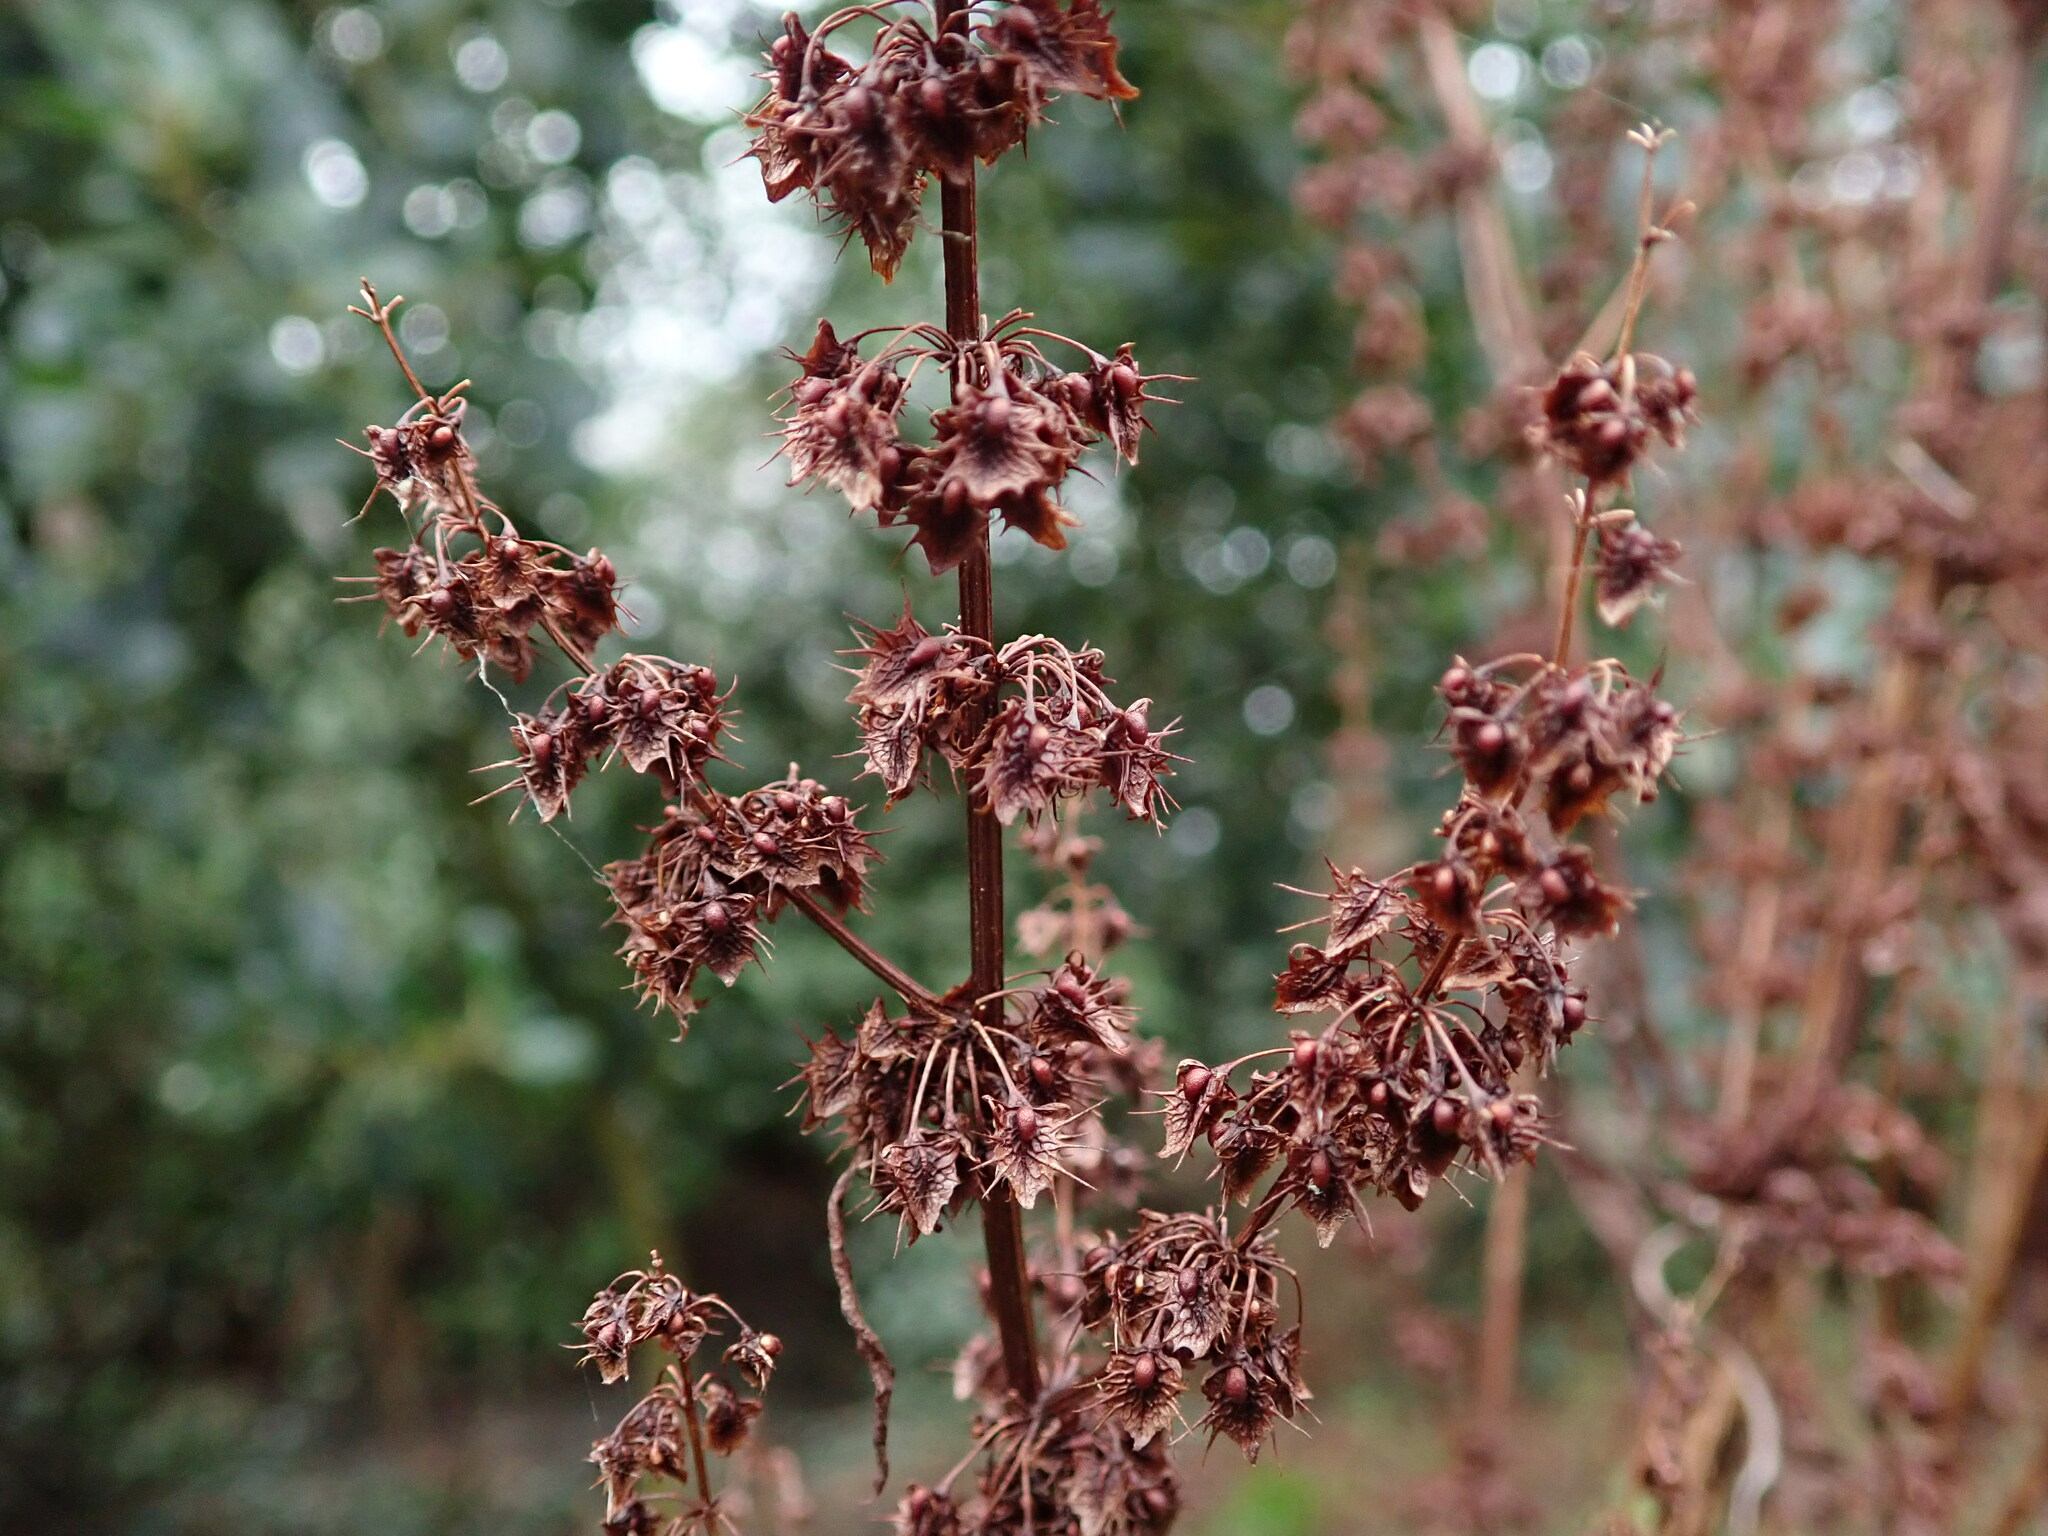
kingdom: Plantae
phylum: Tracheophyta
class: Magnoliopsida
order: Caryophyllales
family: Polygonaceae
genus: Rumex
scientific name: Rumex obtusifolius
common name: Bitter dock
